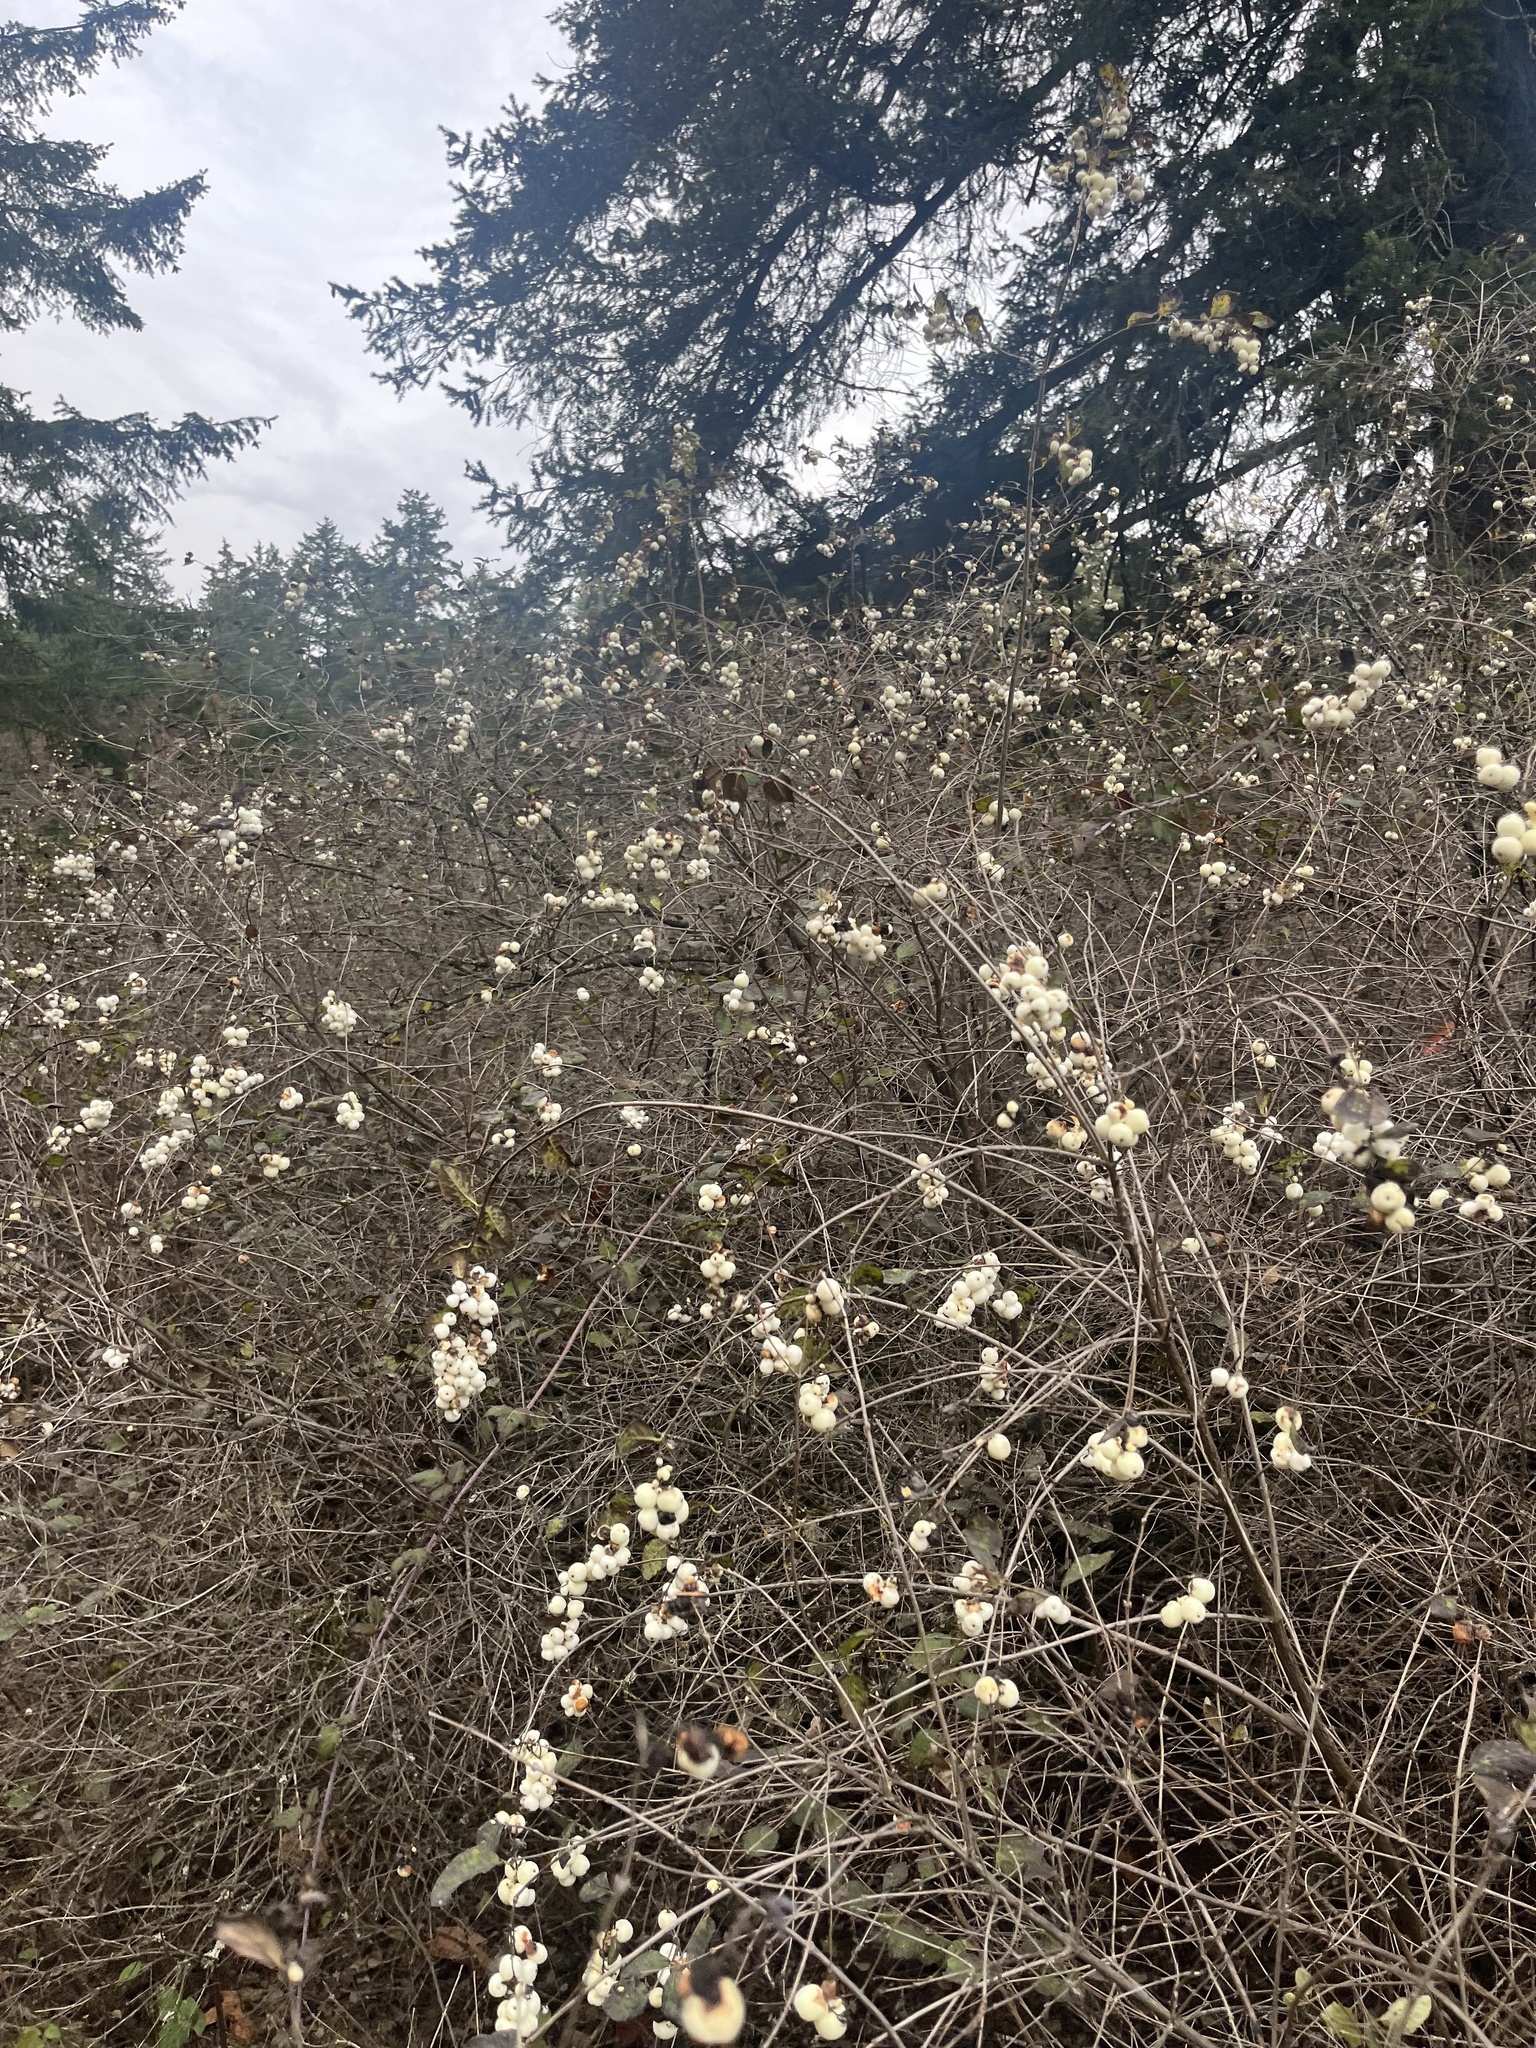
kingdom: Plantae
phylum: Tracheophyta
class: Magnoliopsida
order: Dipsacales
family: Caprifoliaceae
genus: Symphoricarpos
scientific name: Symphoricarpos albus
